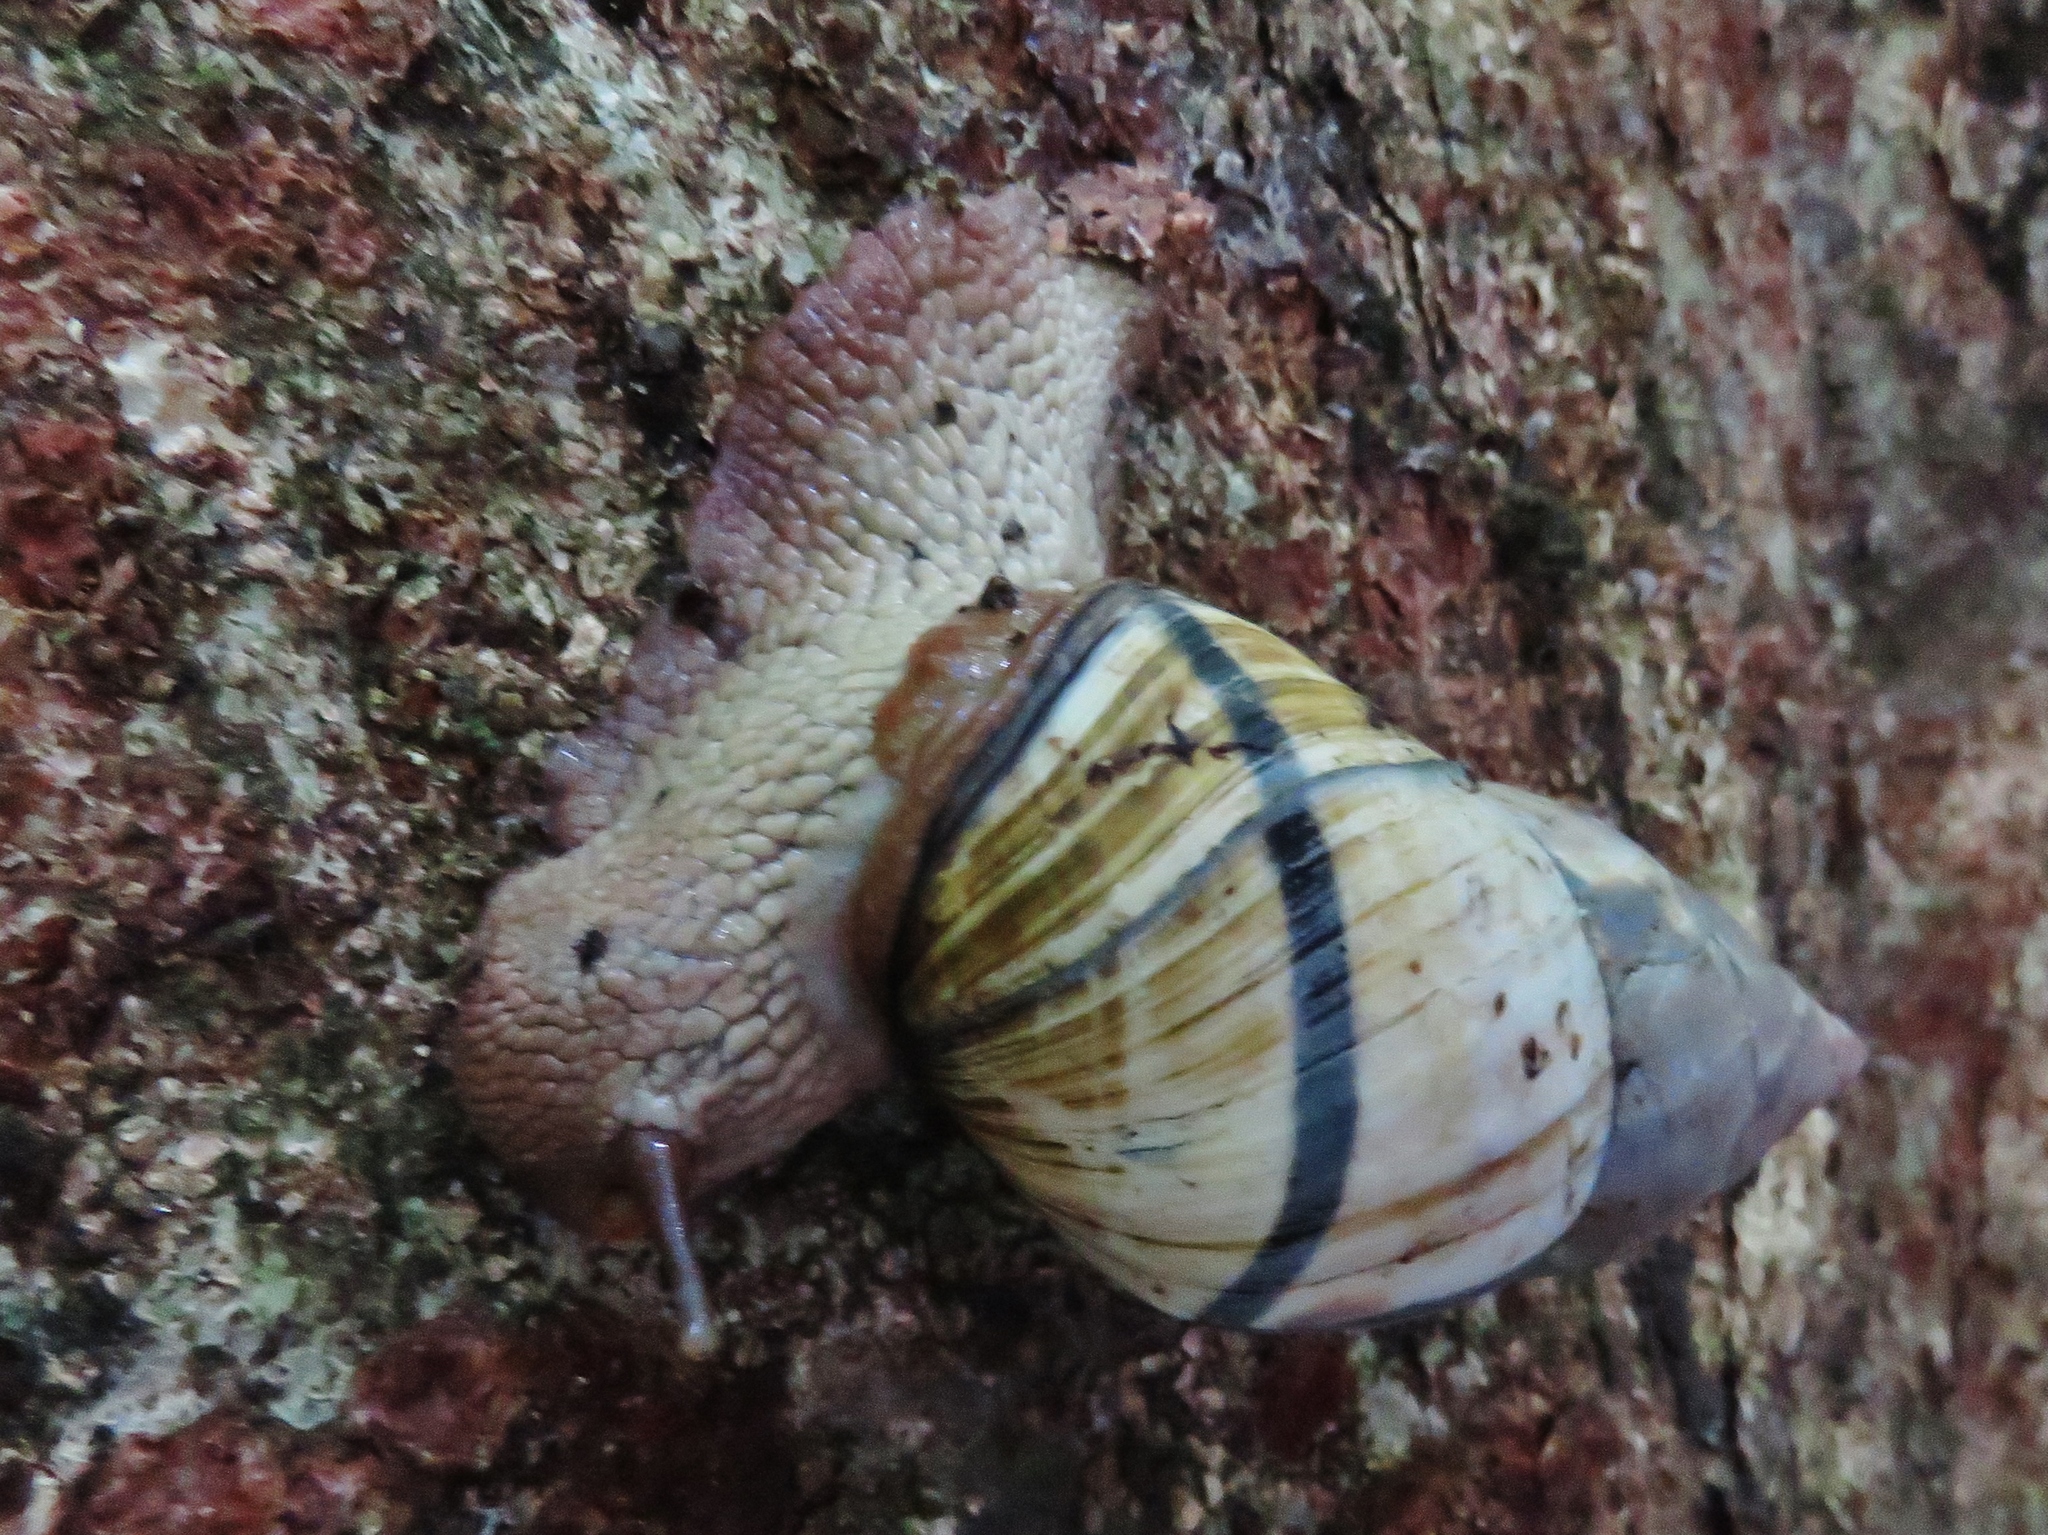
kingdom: Animalia
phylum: Mollusca
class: Gastropoda
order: Stylommatophora
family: Orthalicidae
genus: Corona
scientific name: Corona incisa
